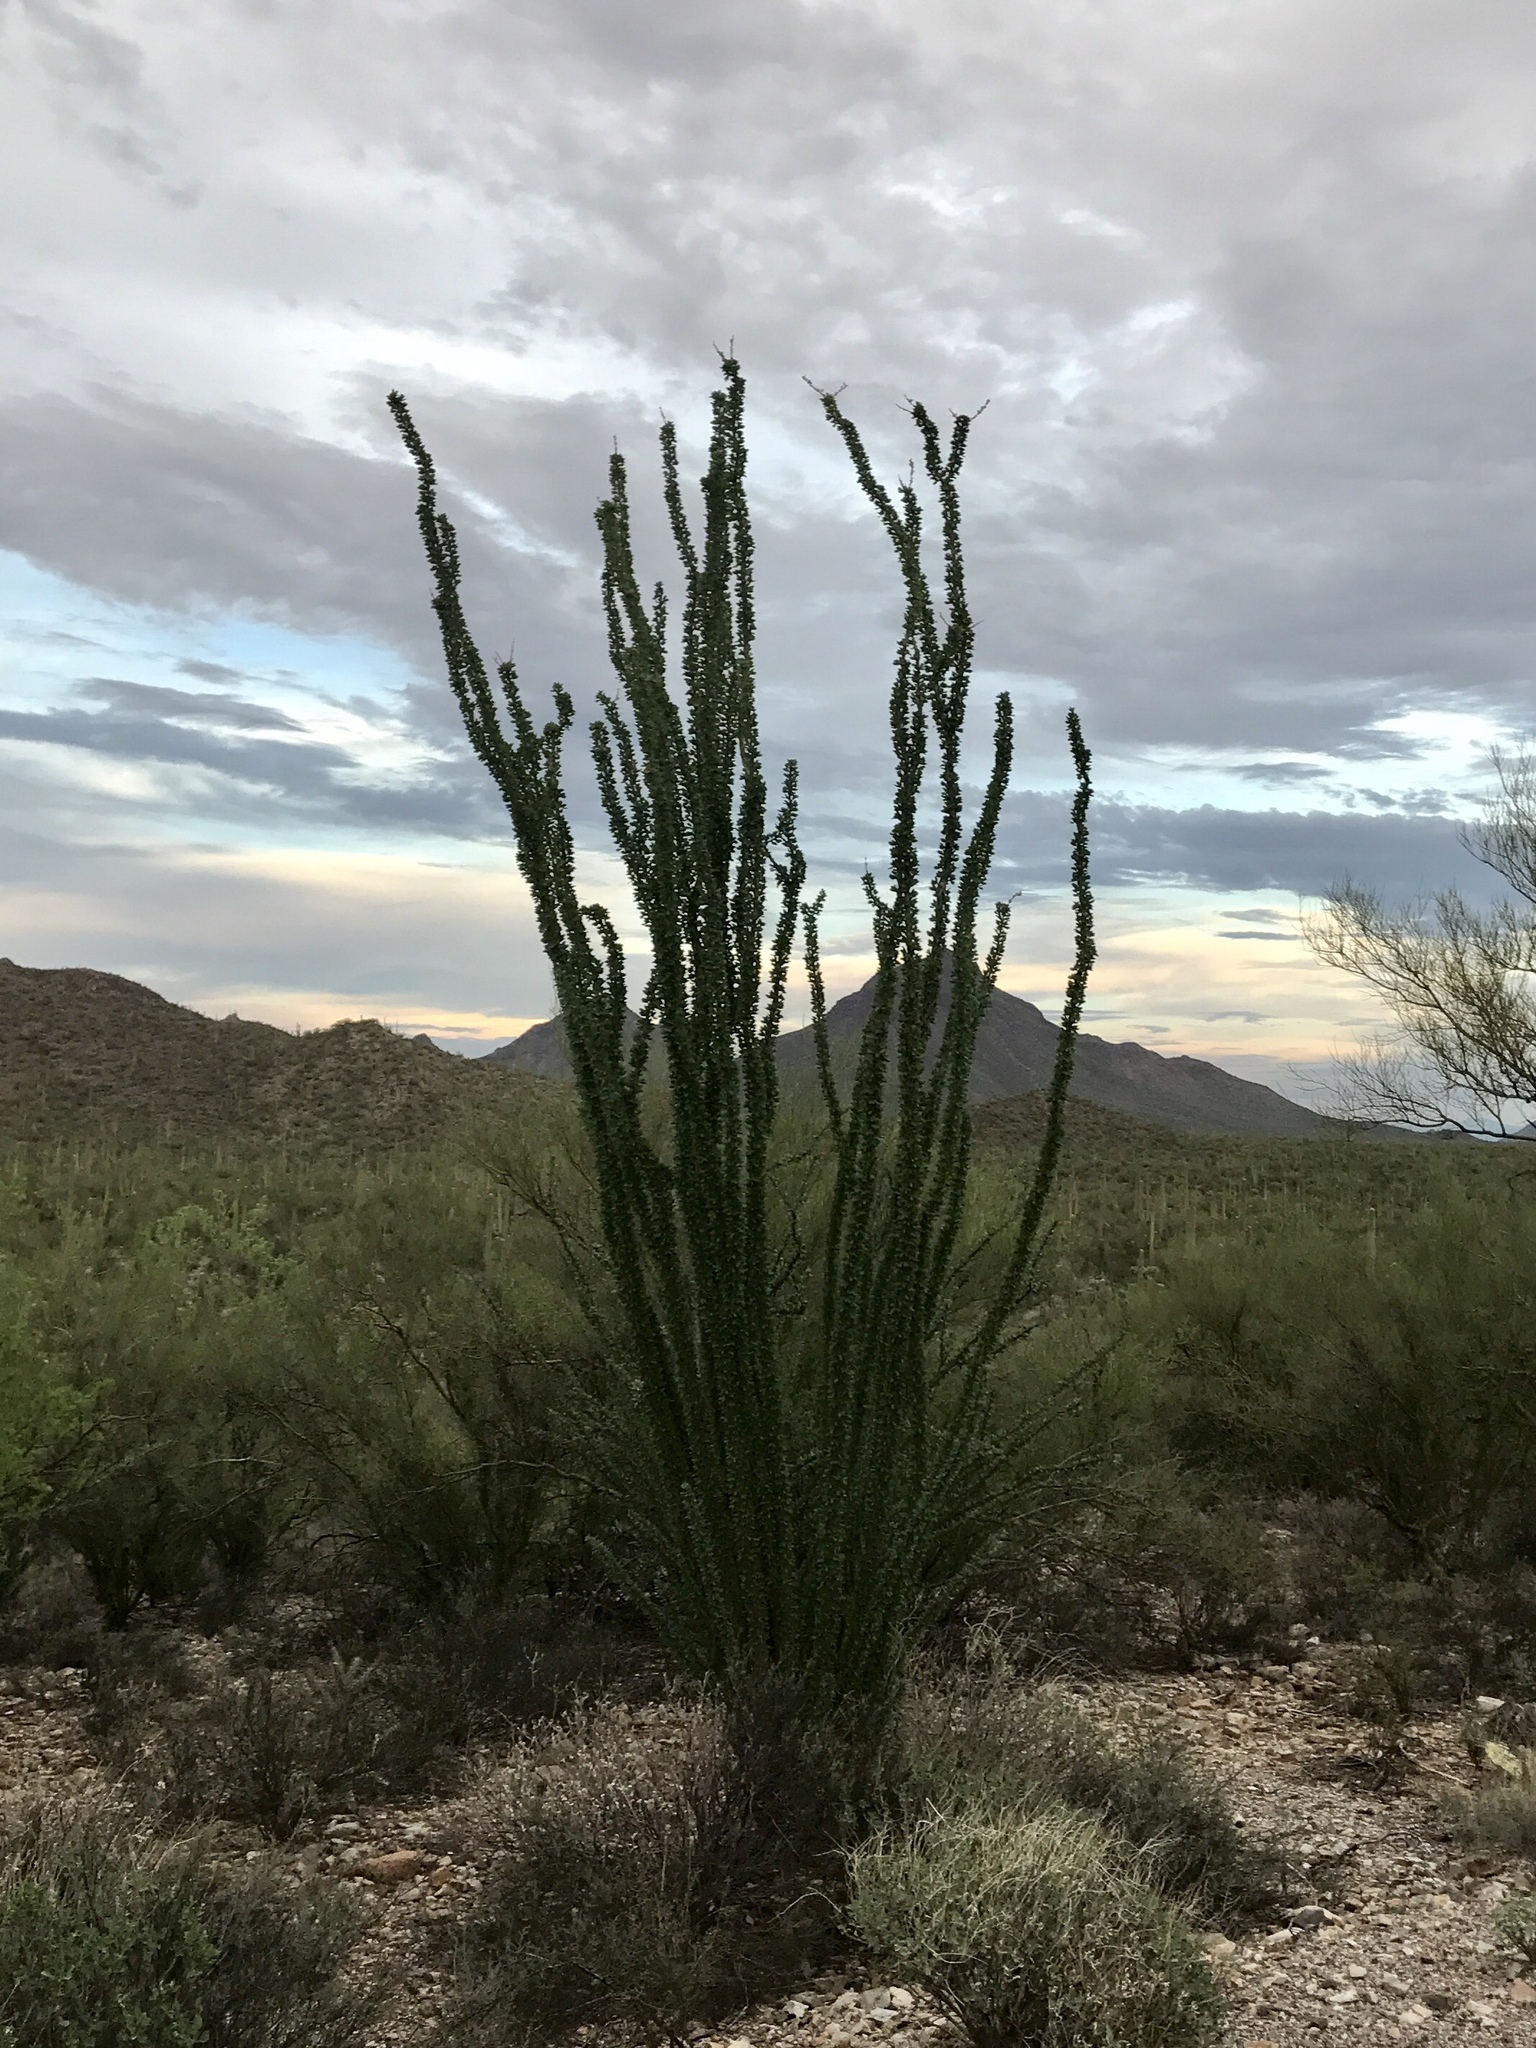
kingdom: Plantae
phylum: Tracheophyta
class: Magnoliopsida
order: Ericales
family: Fouquieriaceae
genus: Fouquieria
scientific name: Fouquieria splendens
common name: Vine-cactus
